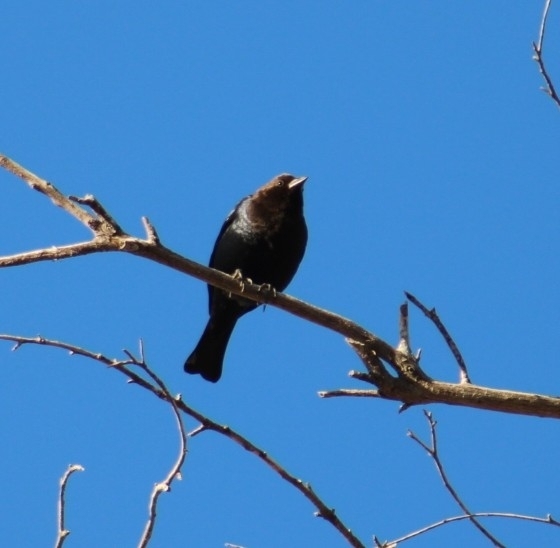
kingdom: Animalia
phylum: Chordata
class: Aves
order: Passeriformes
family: Icteridae
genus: Molothrus
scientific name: Molothrus ater
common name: Brown-headed cowbird
